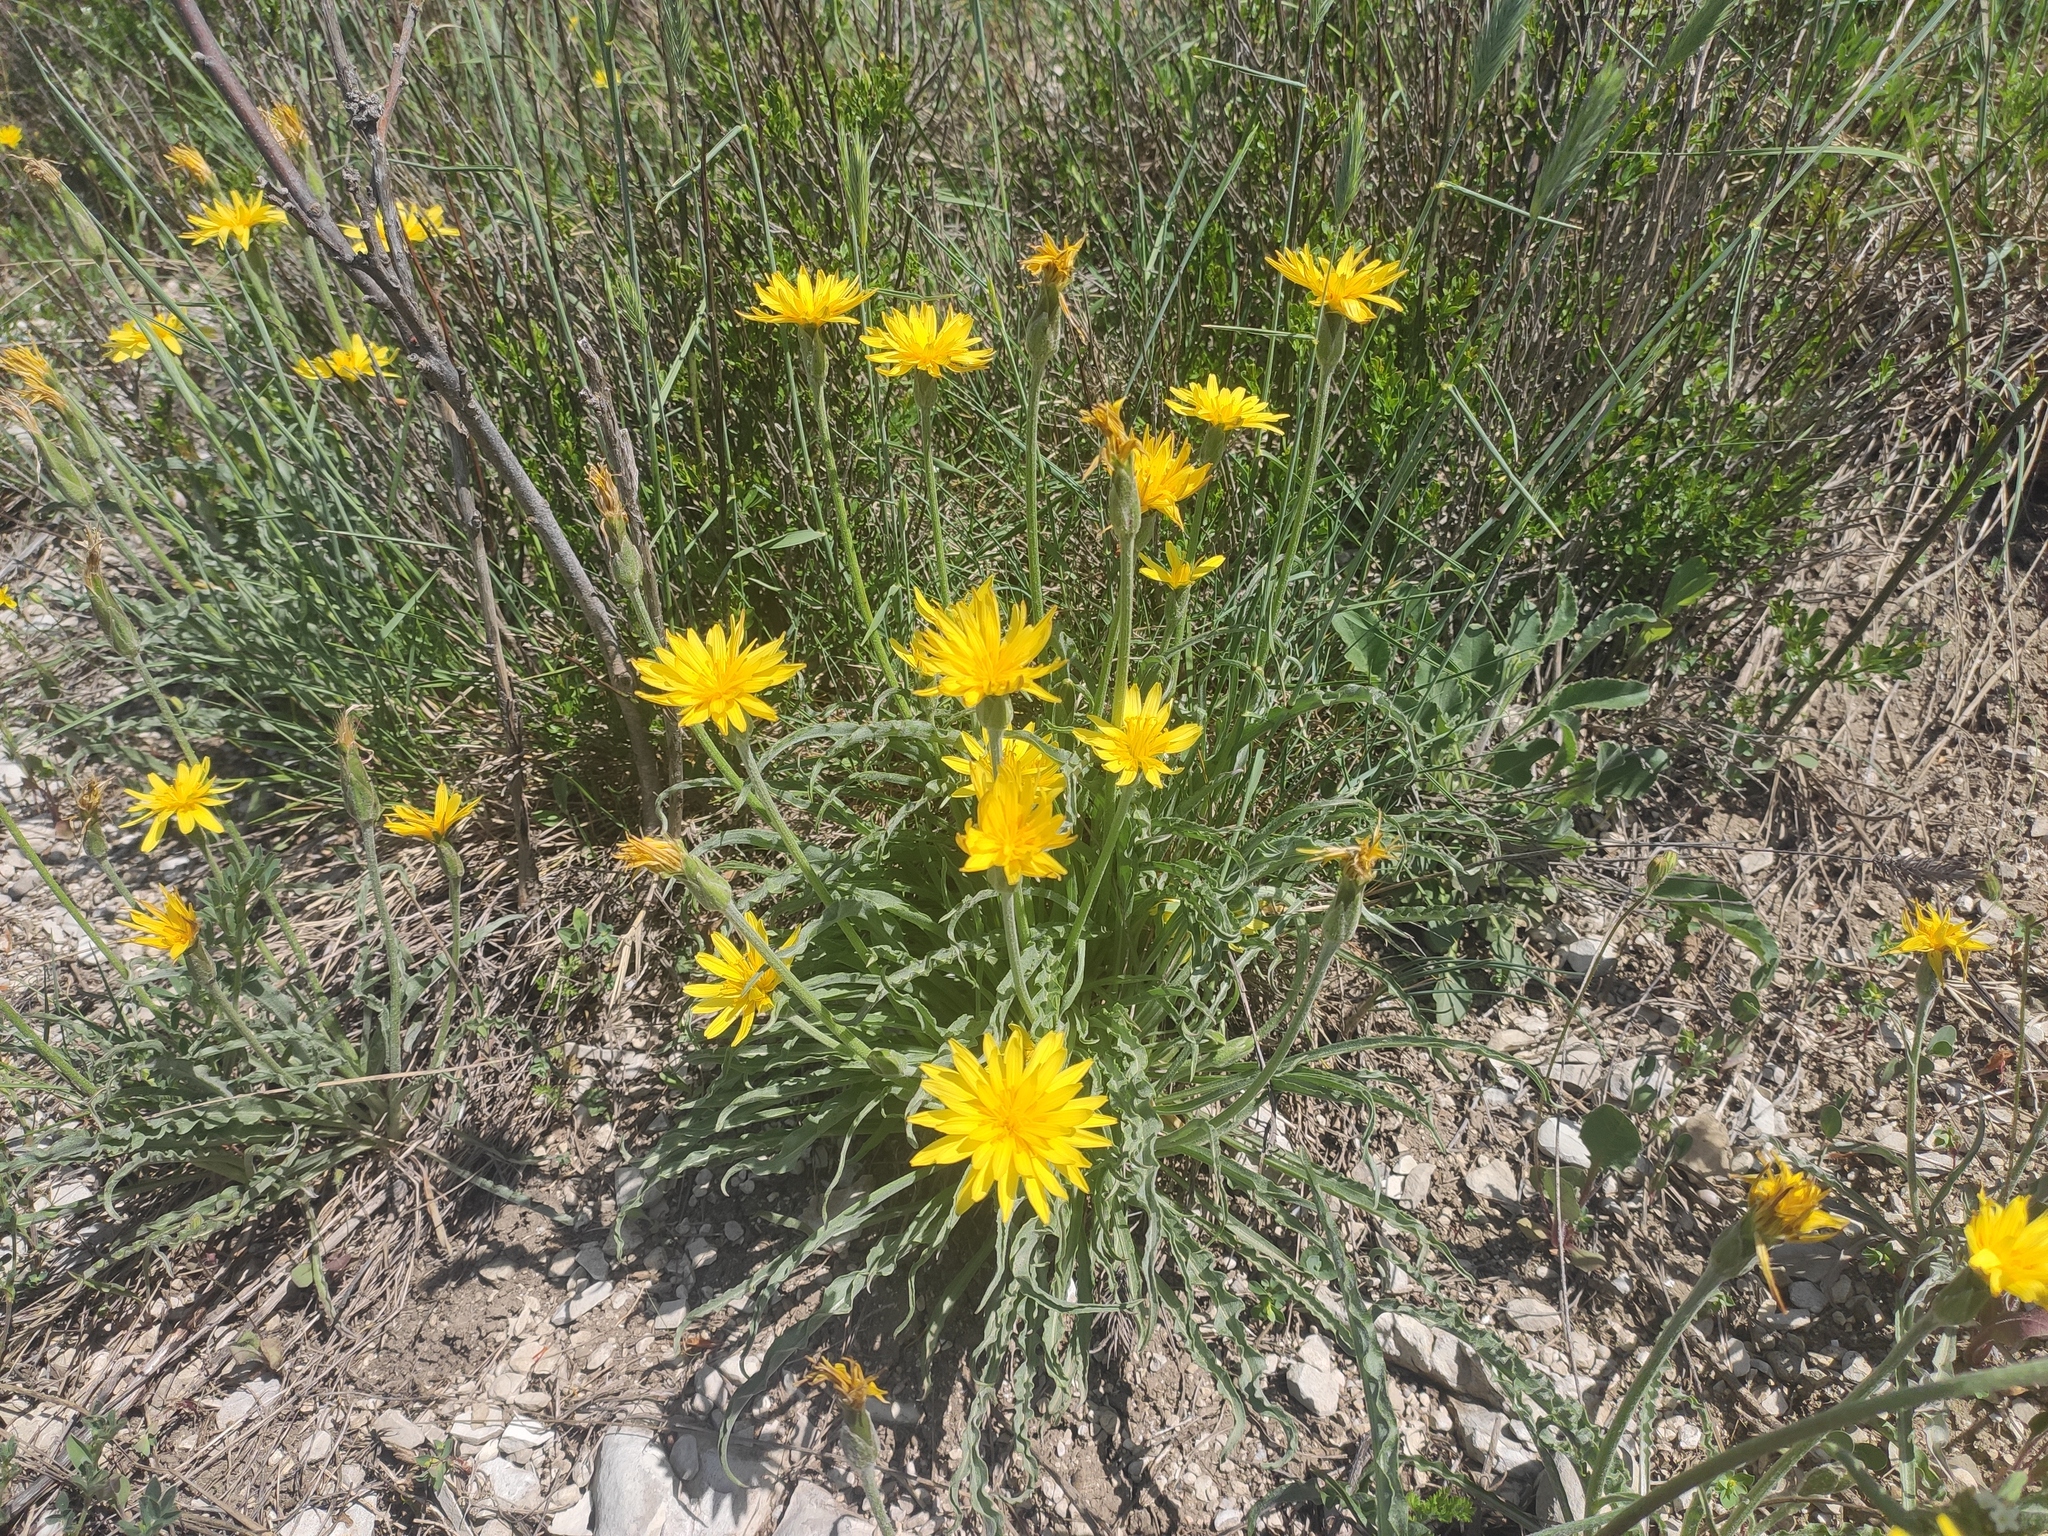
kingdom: Plantae
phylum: Tracheophyta
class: Magnoliopsida
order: Asterales
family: Asteraceae
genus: Candollea
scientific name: Candollea mollis
